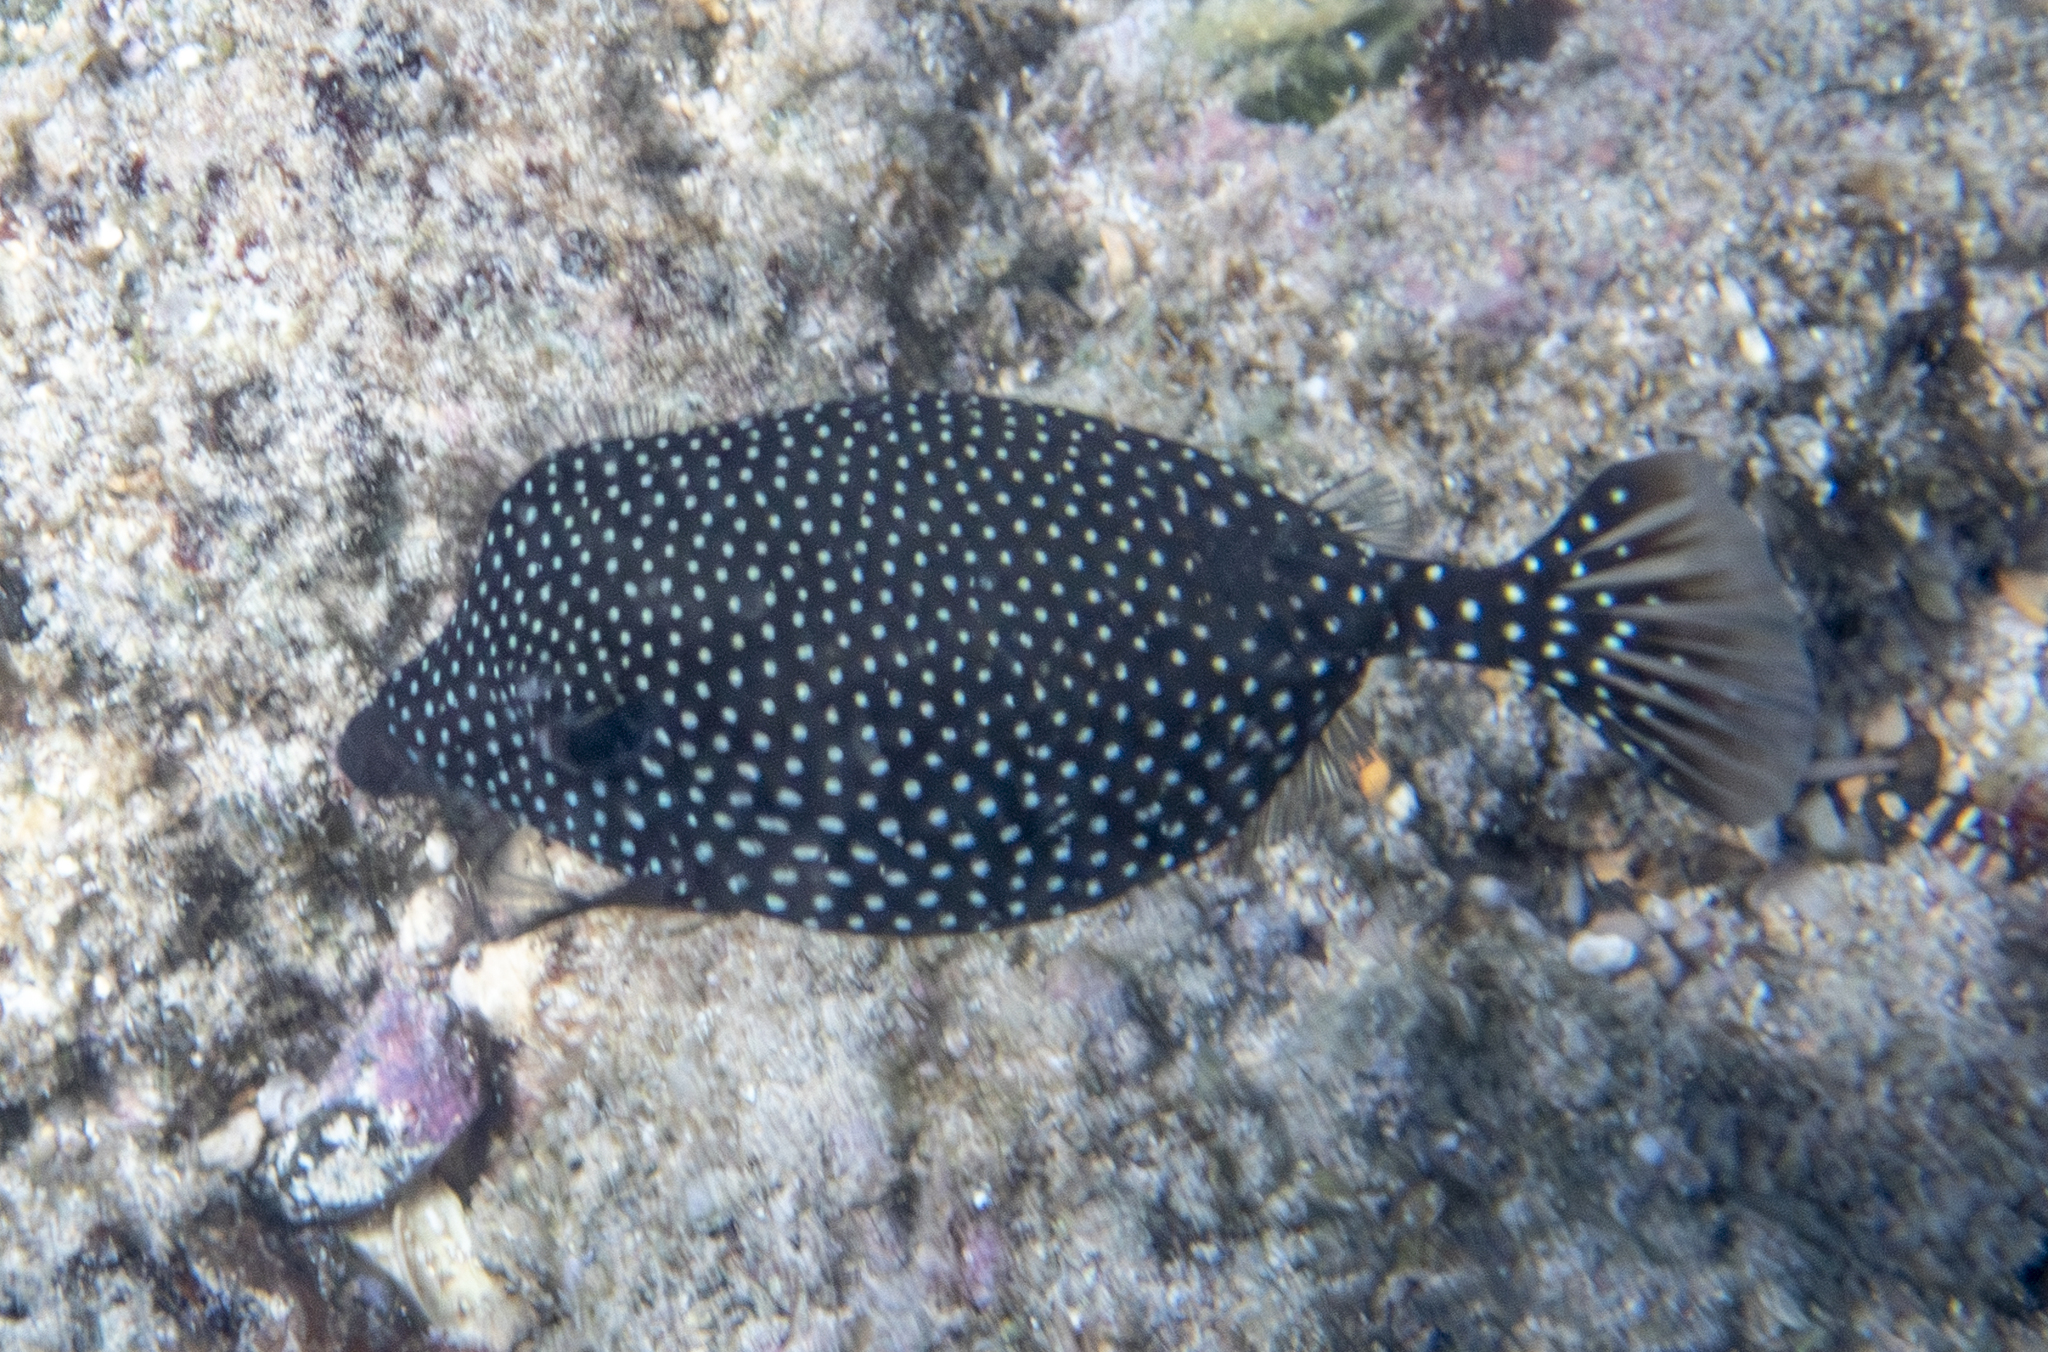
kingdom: Animalia
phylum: Chordata
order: Tetraodontiformes
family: Ostraciidae
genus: Ostracion
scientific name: Ostracion meleagris
